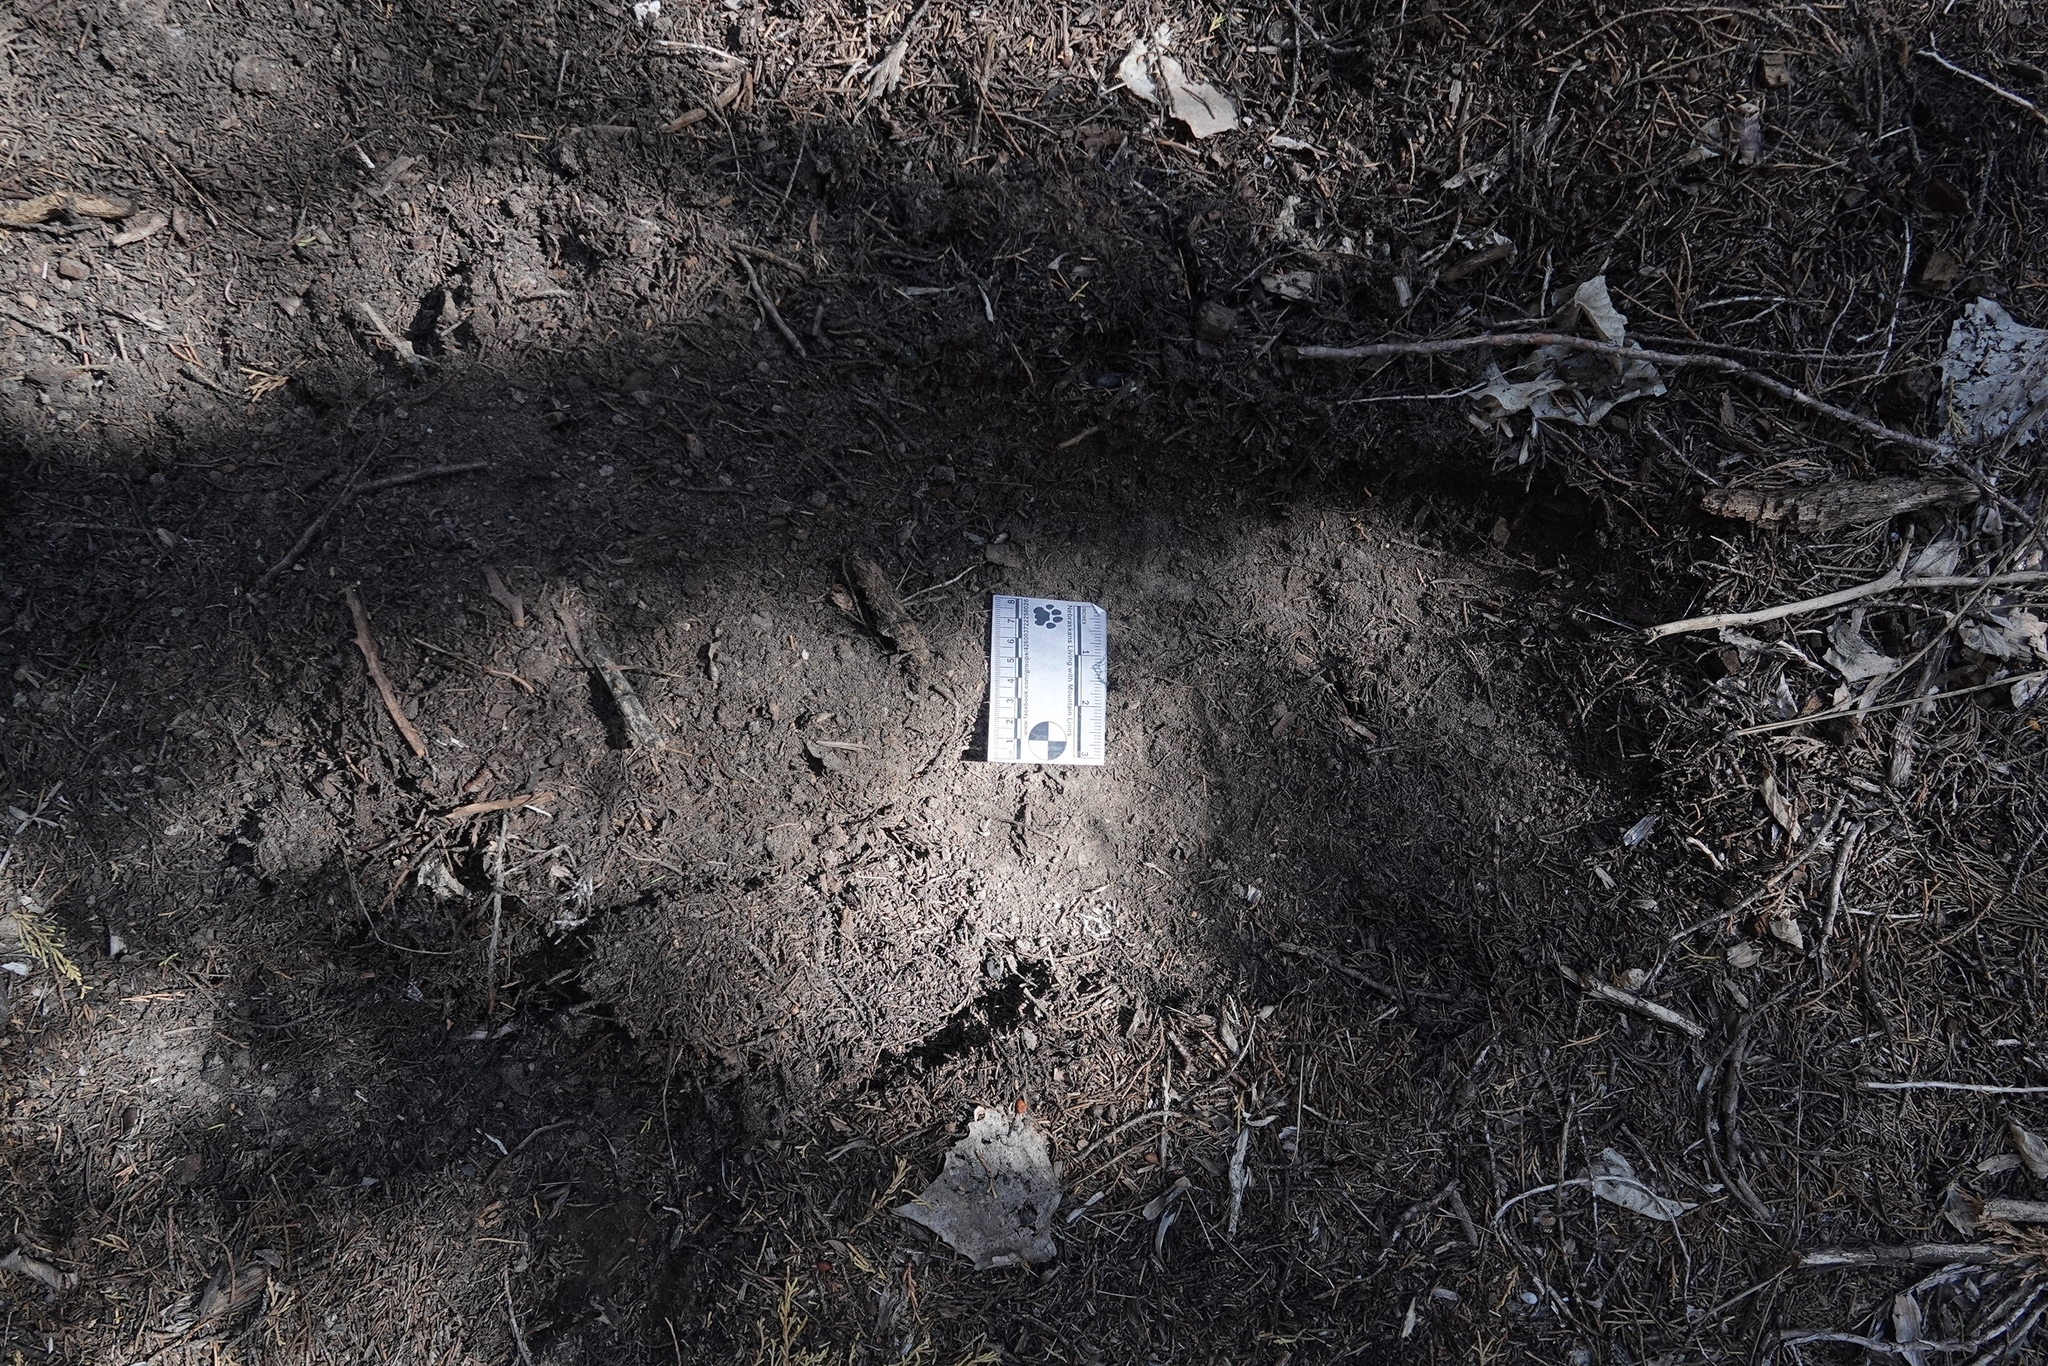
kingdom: Animalia
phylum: Chordata
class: Mammalia
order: Carnivora
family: Felidae
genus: Puma
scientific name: Puma concolor
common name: Puma
